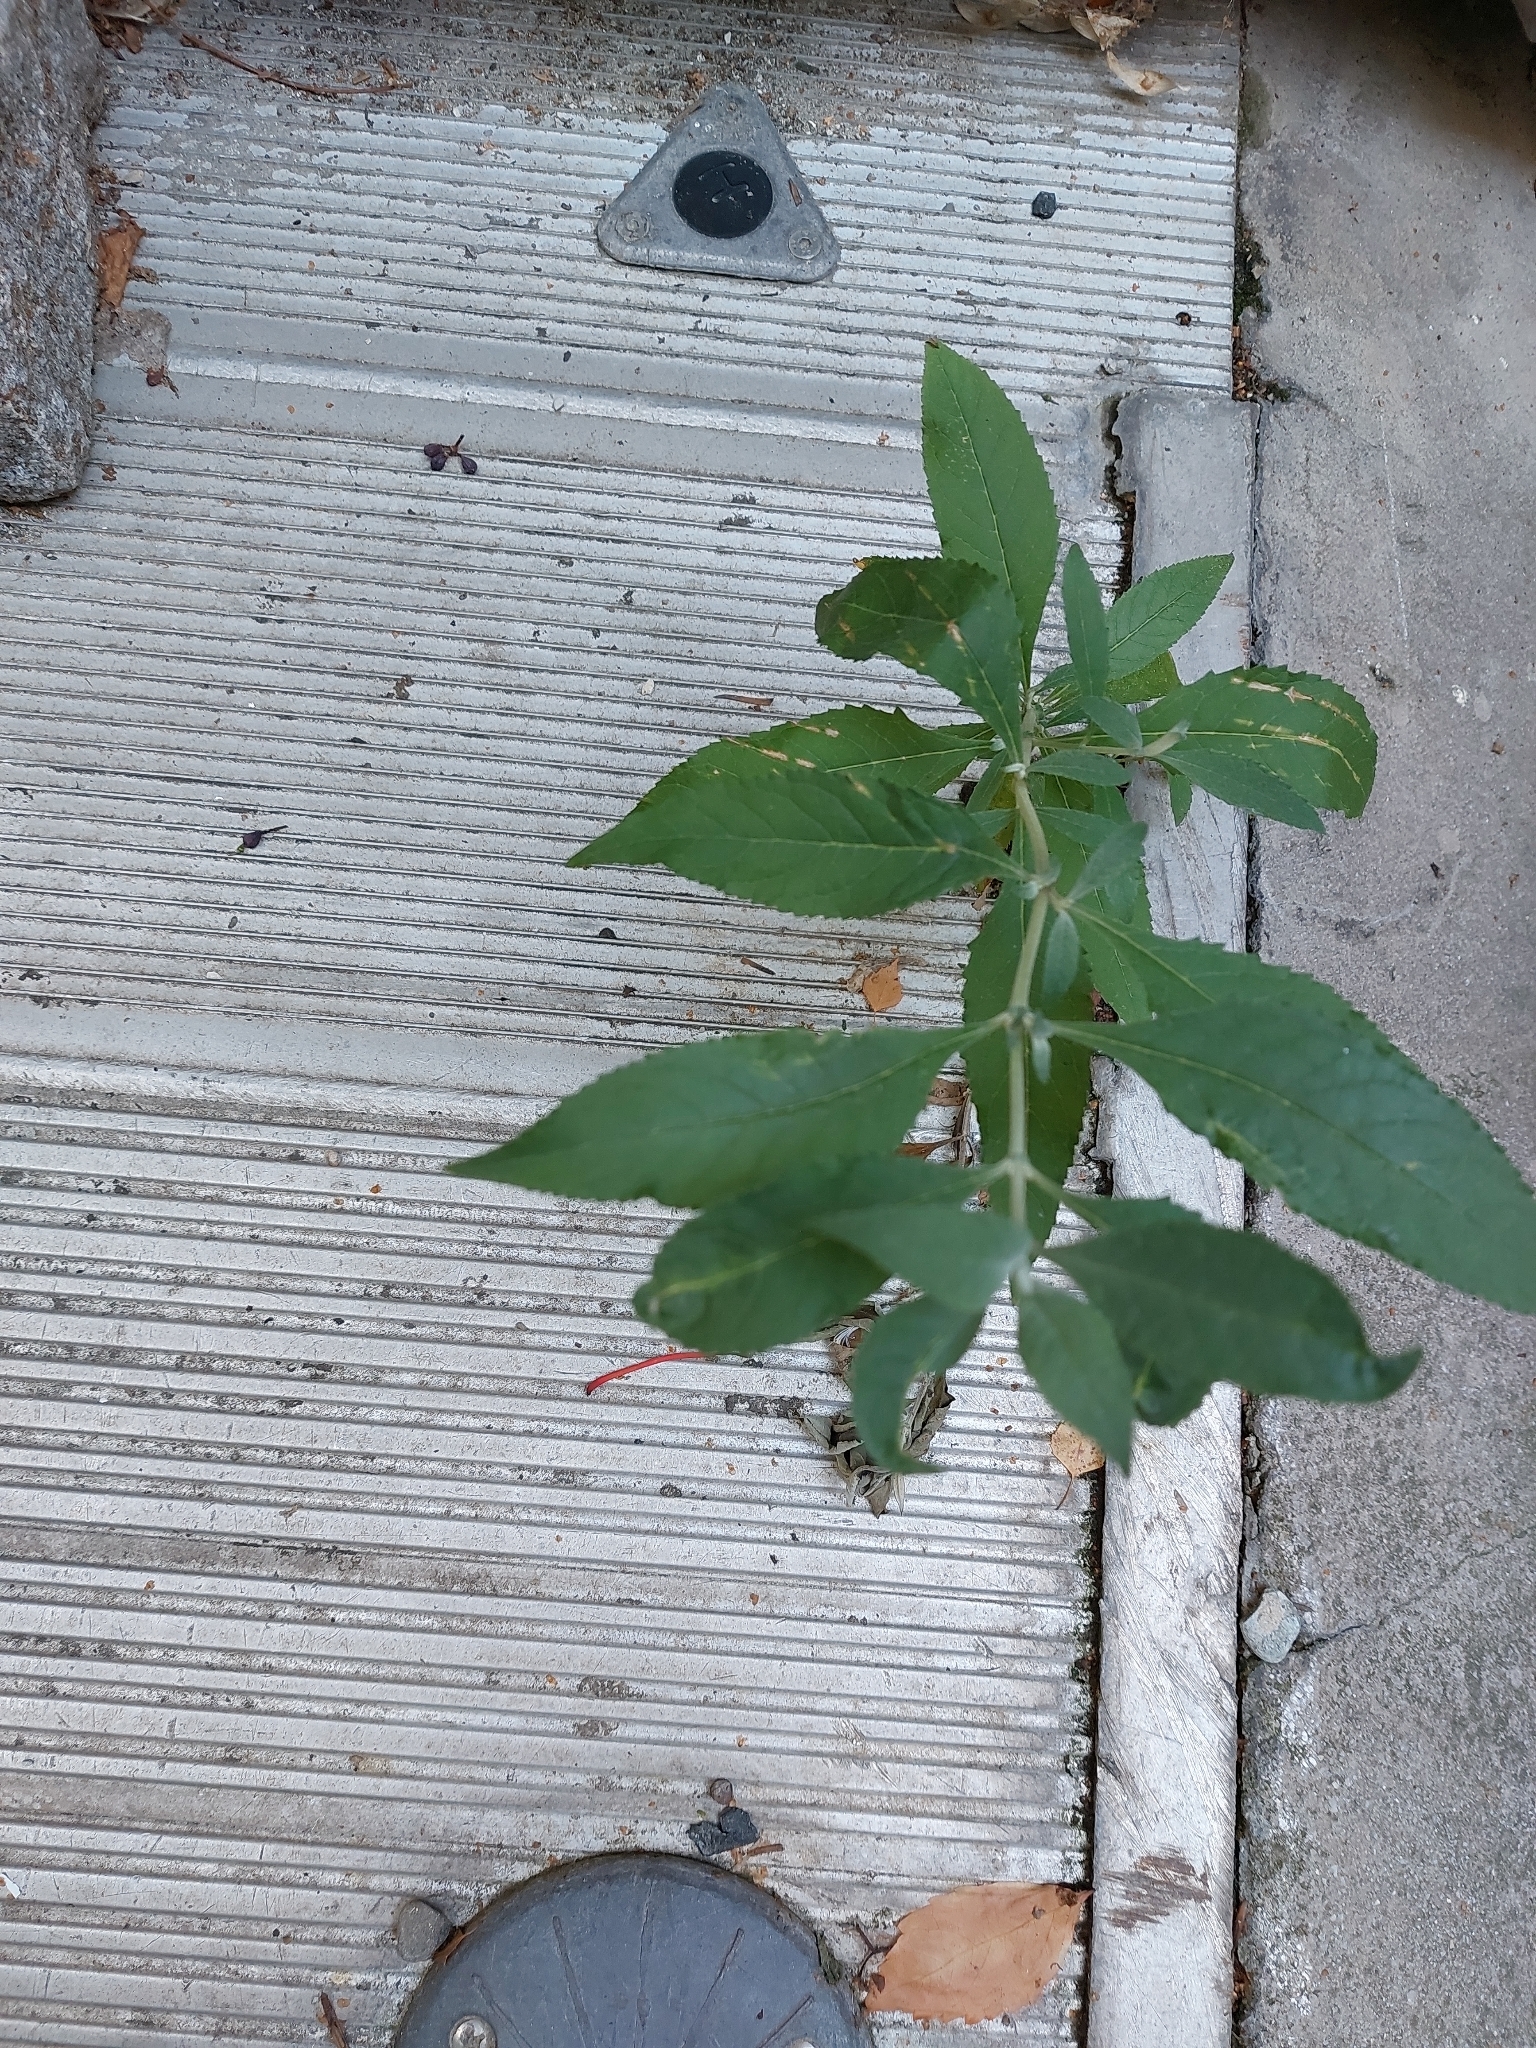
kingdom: Plantae
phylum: Tracheophyta
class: Magnoliopsida
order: Lamiales
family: Scrophulariaceae
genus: Buddleja
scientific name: Buddleja davidii
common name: Butterfly-bush
